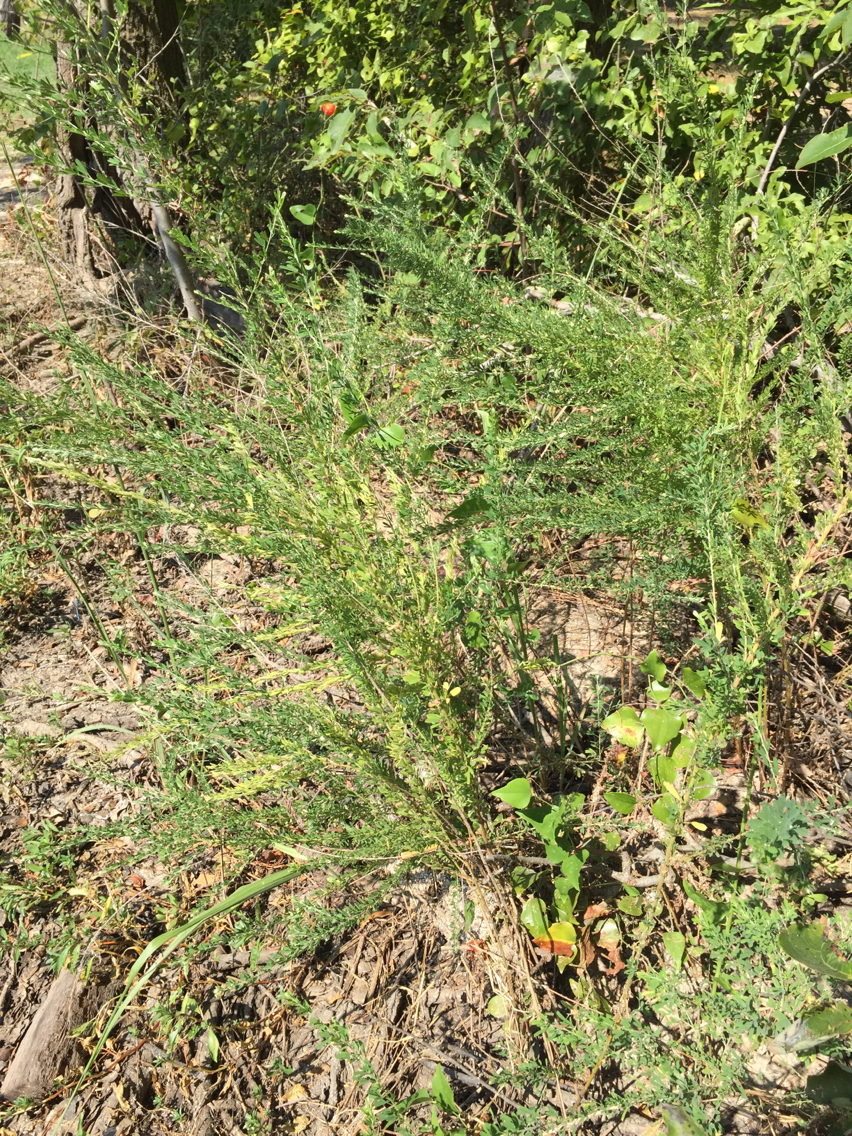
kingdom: Plantae
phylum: Tracheophyta
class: Magnoliopsida
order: Fabales
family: Fabaceae
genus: Lespedeza
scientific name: Lespedeza cuneata
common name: Chinese bush-clover
